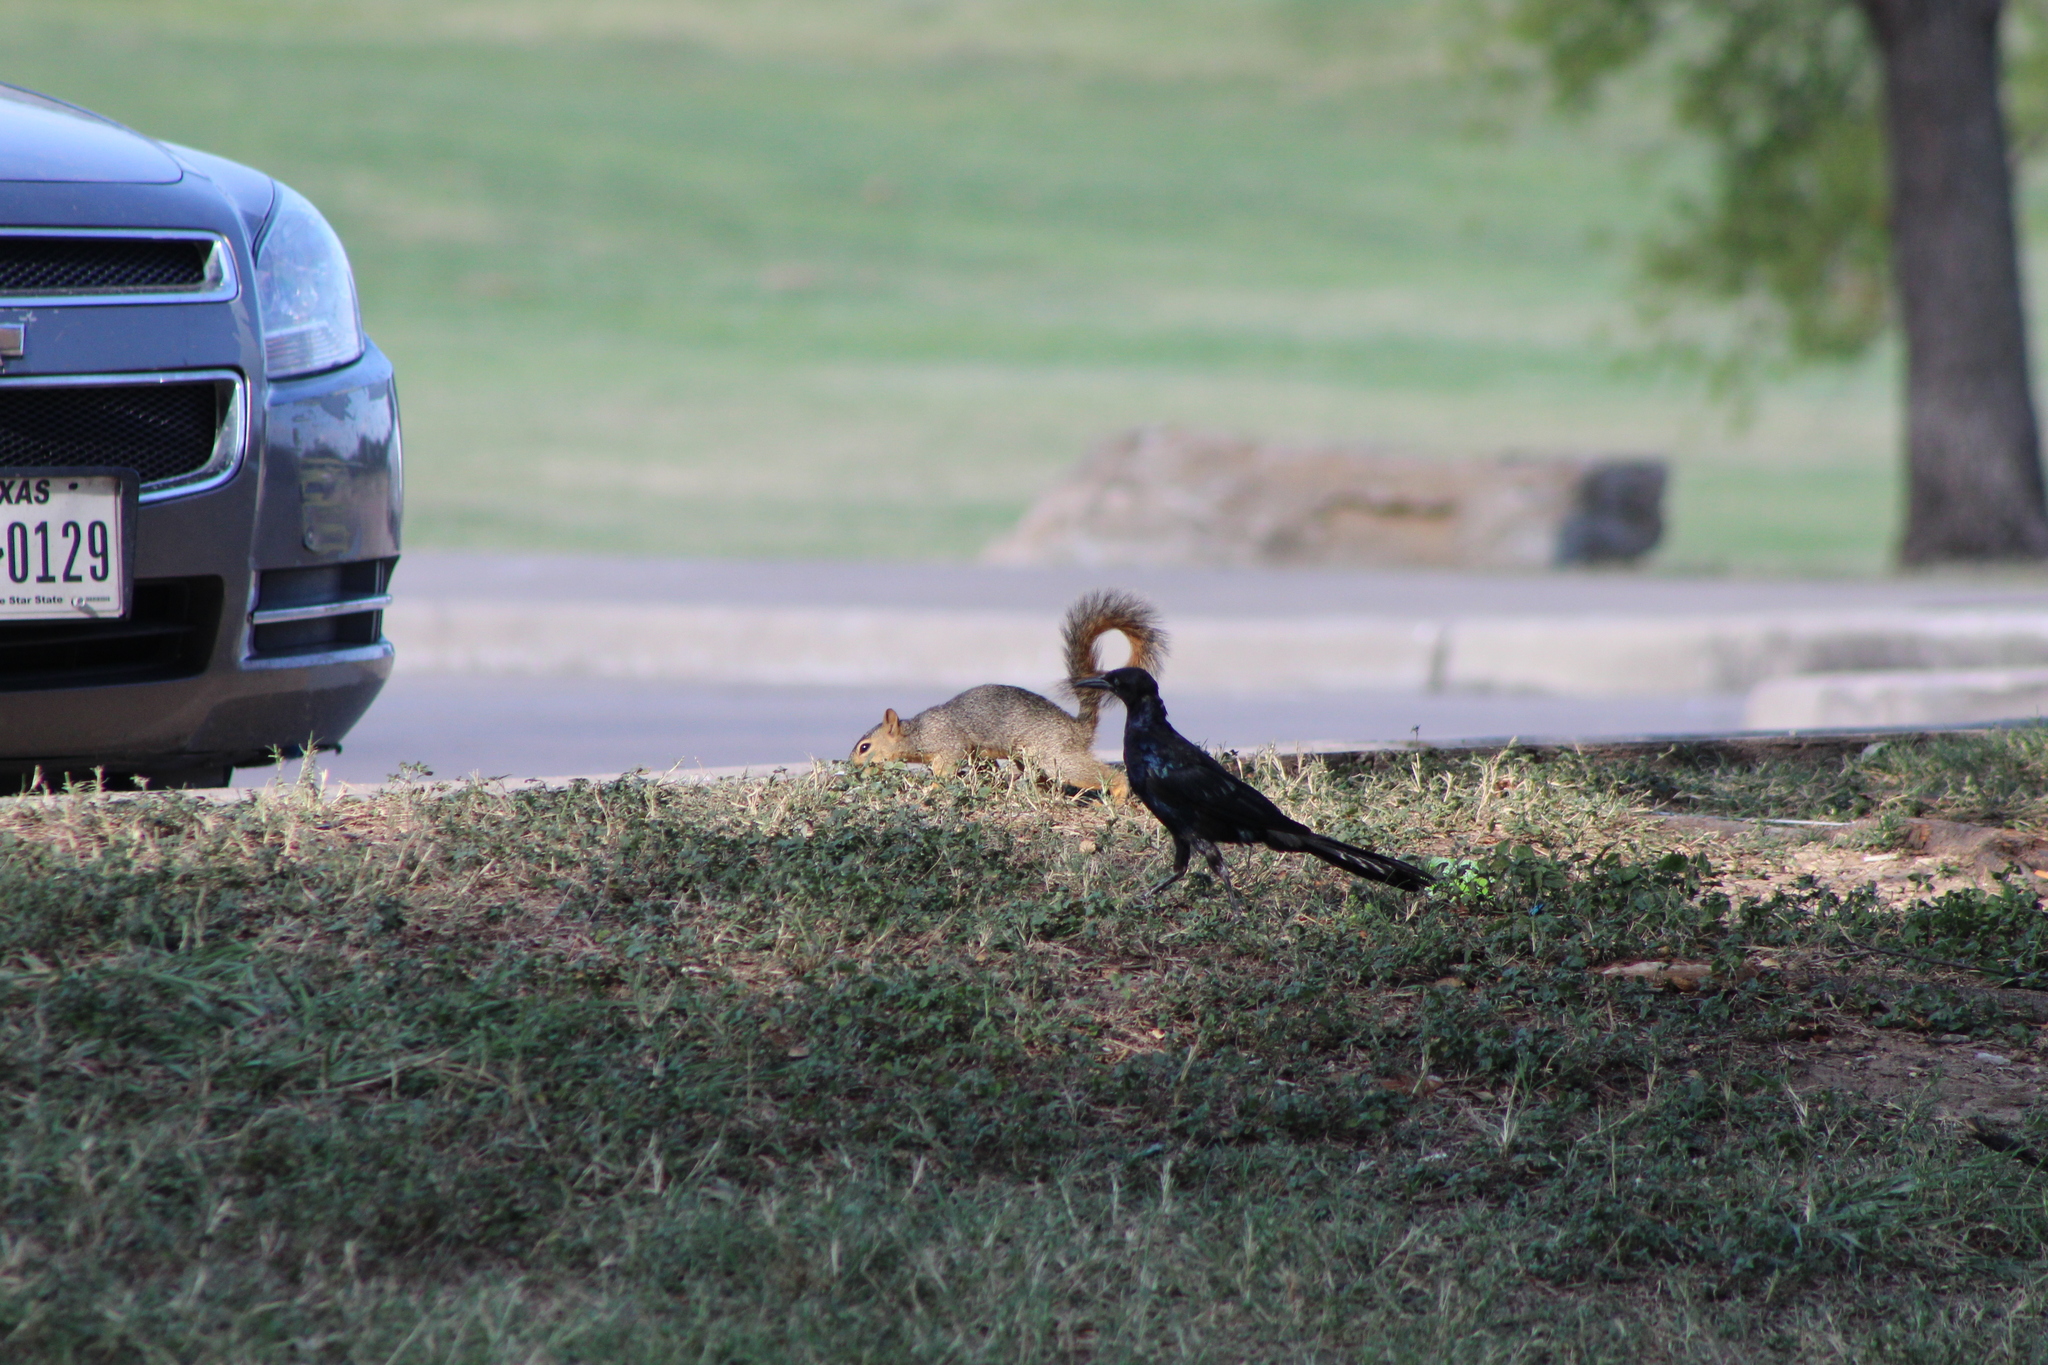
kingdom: Animalia
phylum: Chordata
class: Mammalia
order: Rodentia
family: Sciuridae
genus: Sciurus
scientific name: Sciurus niger
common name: Fox squirrel
